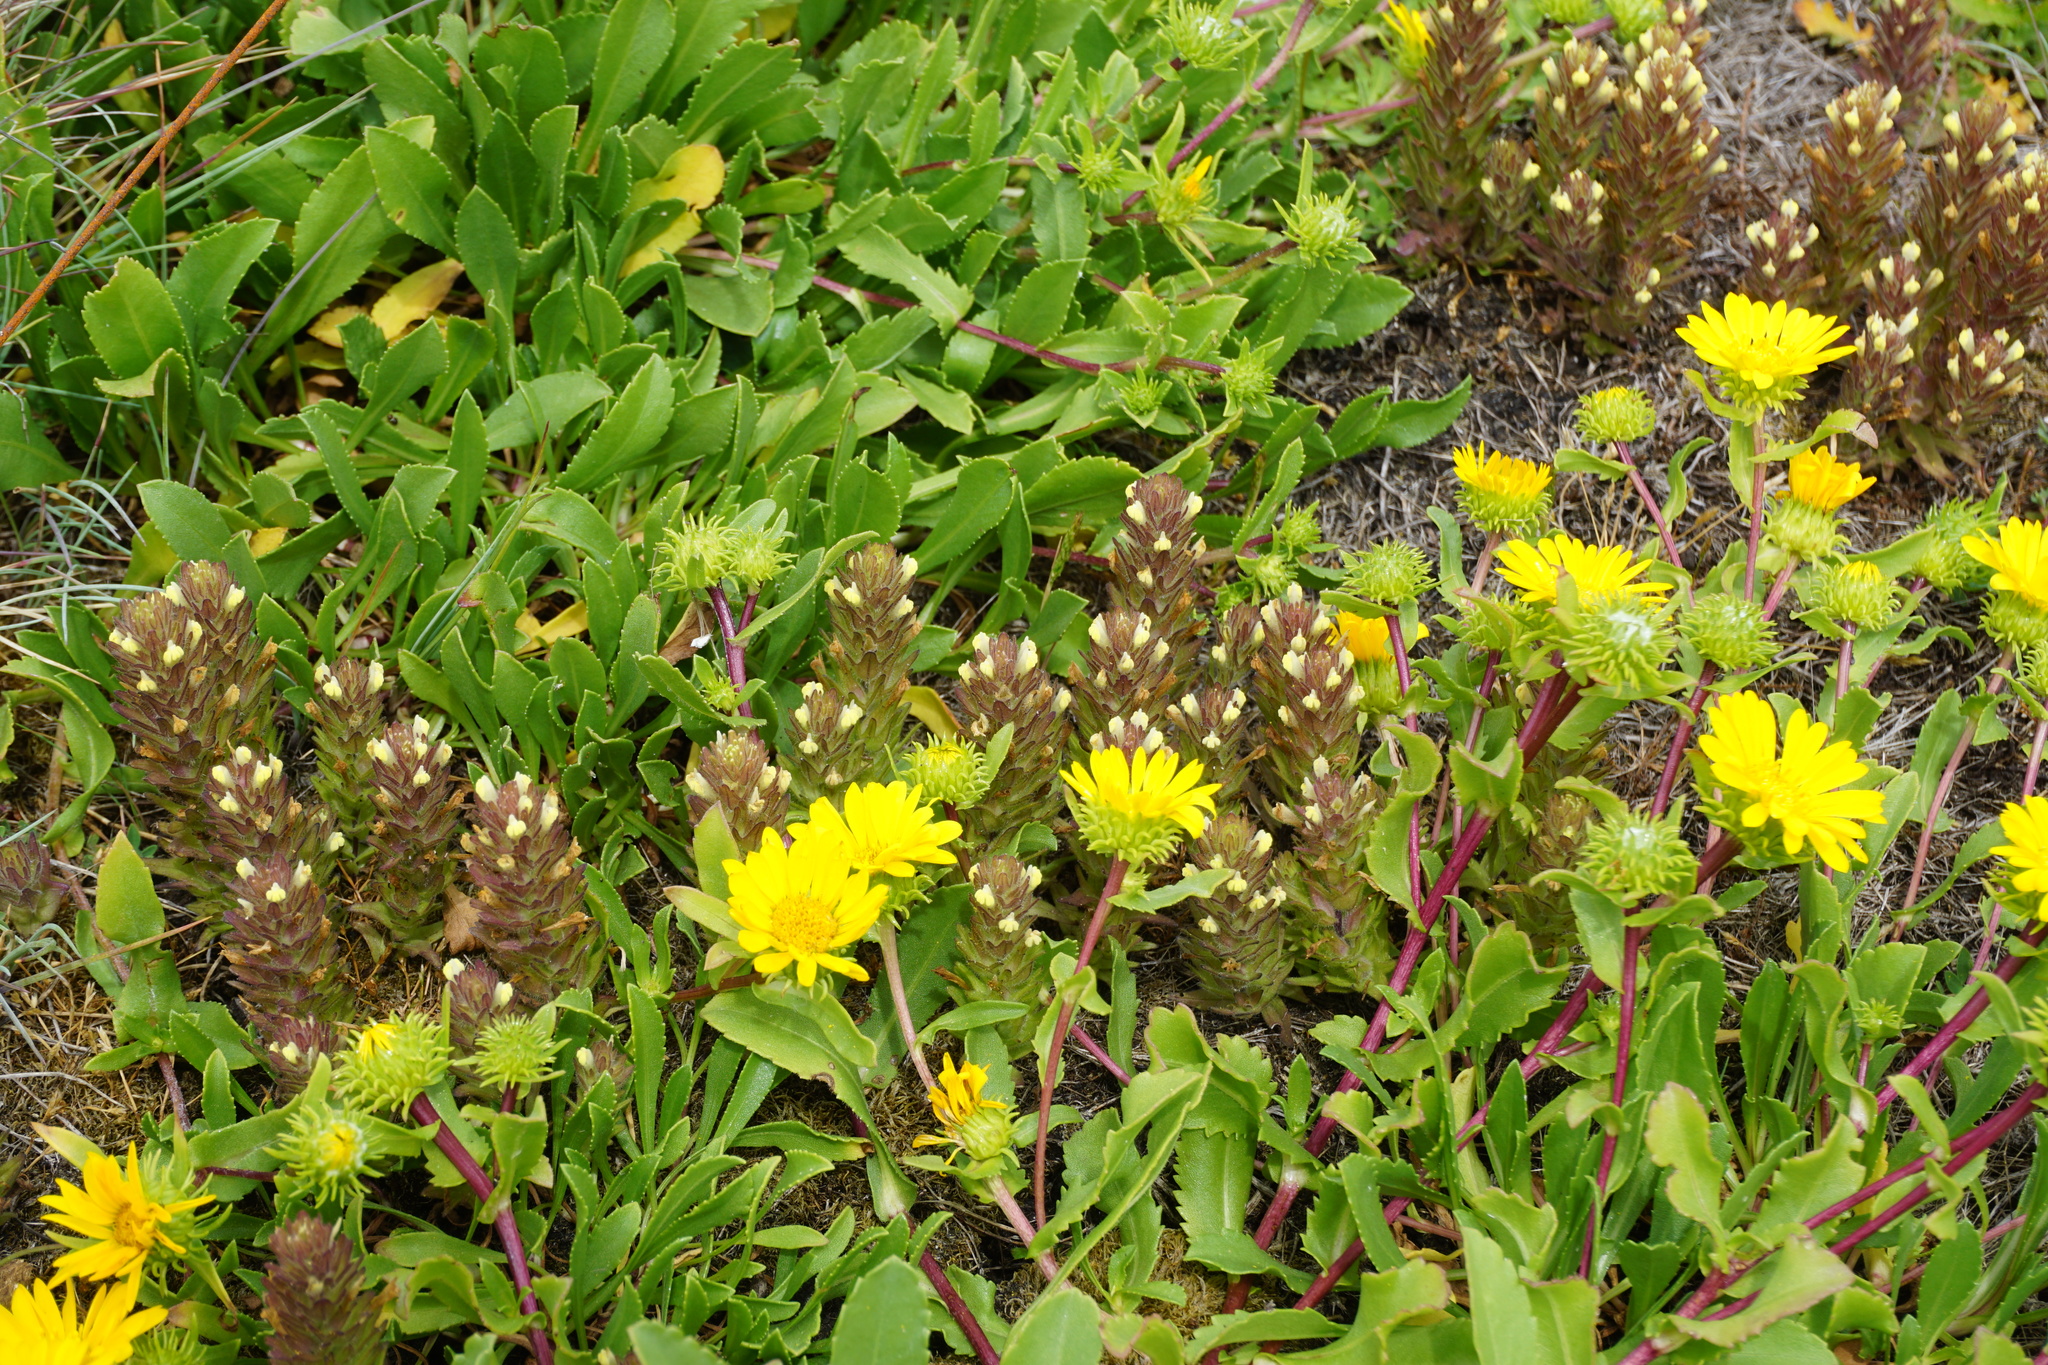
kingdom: Plantae
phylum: Tracheophyta
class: Magnoliopsida
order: Lamiales
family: Orobanchaceae
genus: Castilleja
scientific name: Castilleja victoriae
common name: Victoria paintbrush
